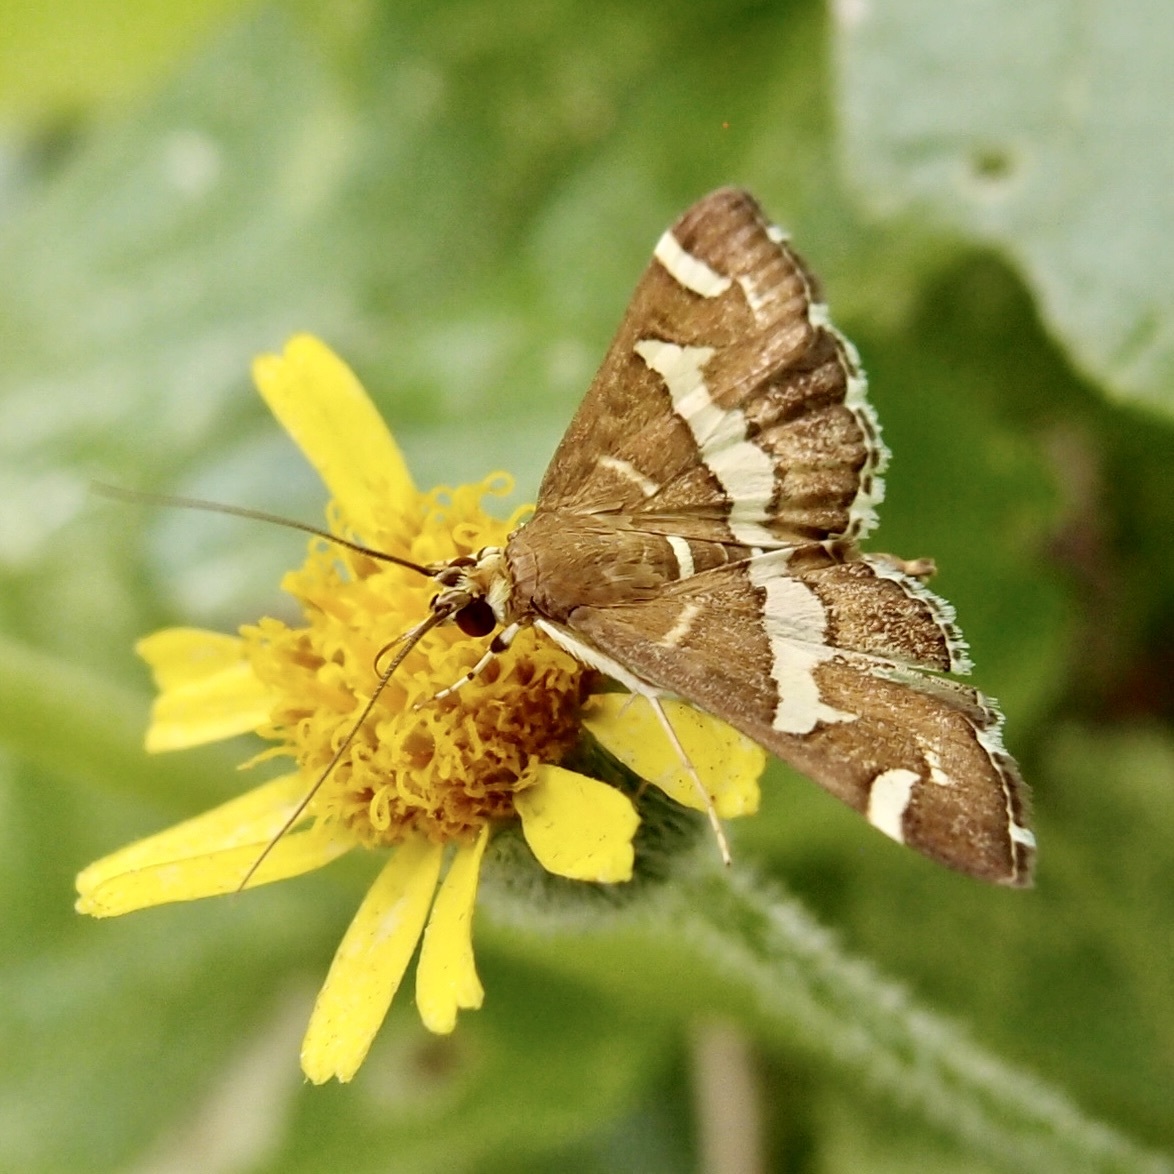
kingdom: Animalia
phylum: Arthropoda
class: Insecta
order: Lepidoptera
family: Crambidae
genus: Spoladea
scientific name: Spoladea recurvalis
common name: Beet webworm moth
